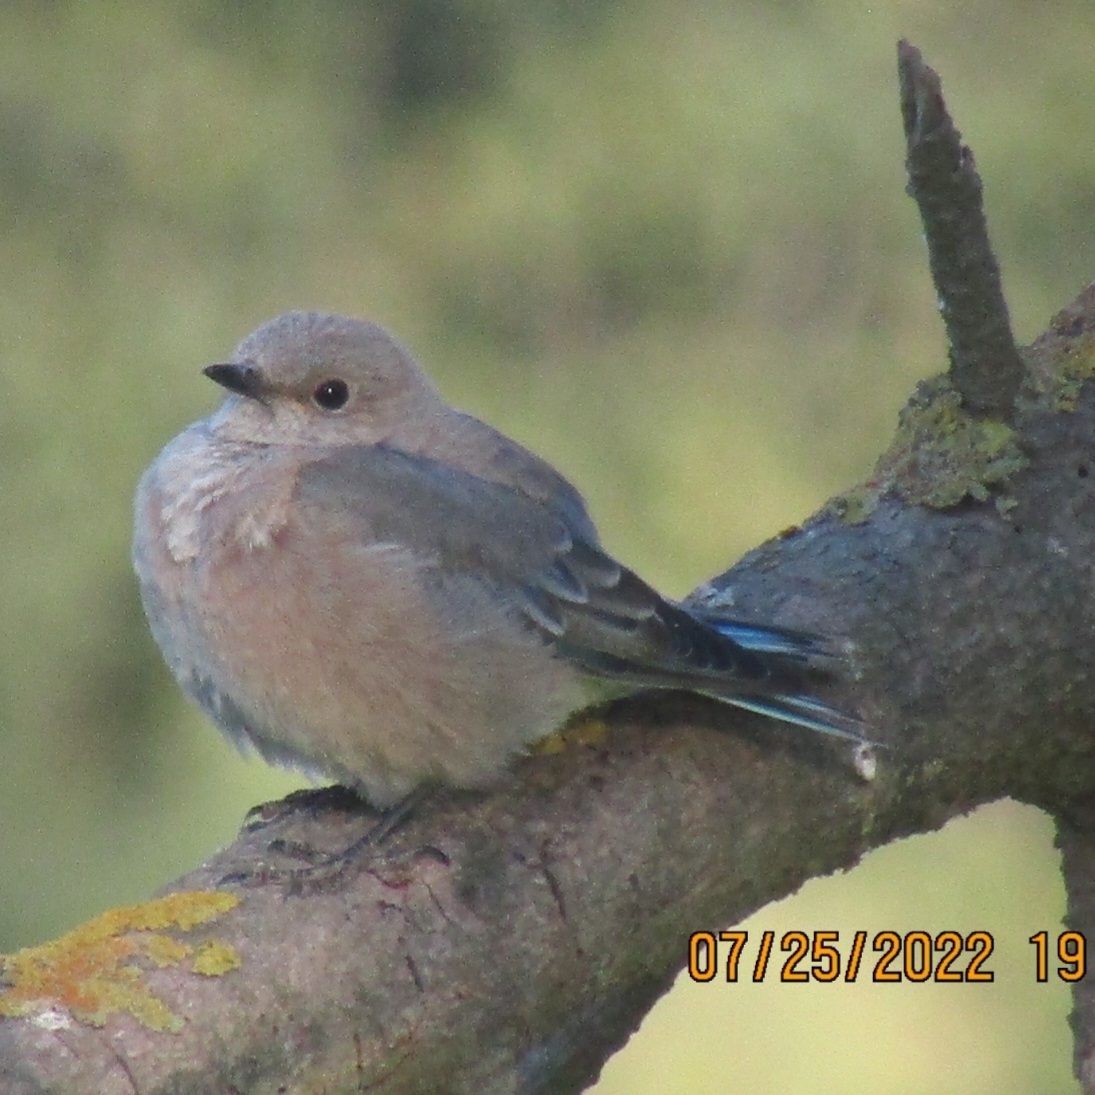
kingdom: Animalia
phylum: Chordata
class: Aves
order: Passeriformes
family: Turdidae
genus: Sialia
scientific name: Sialia mexicana
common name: Western bluebird
